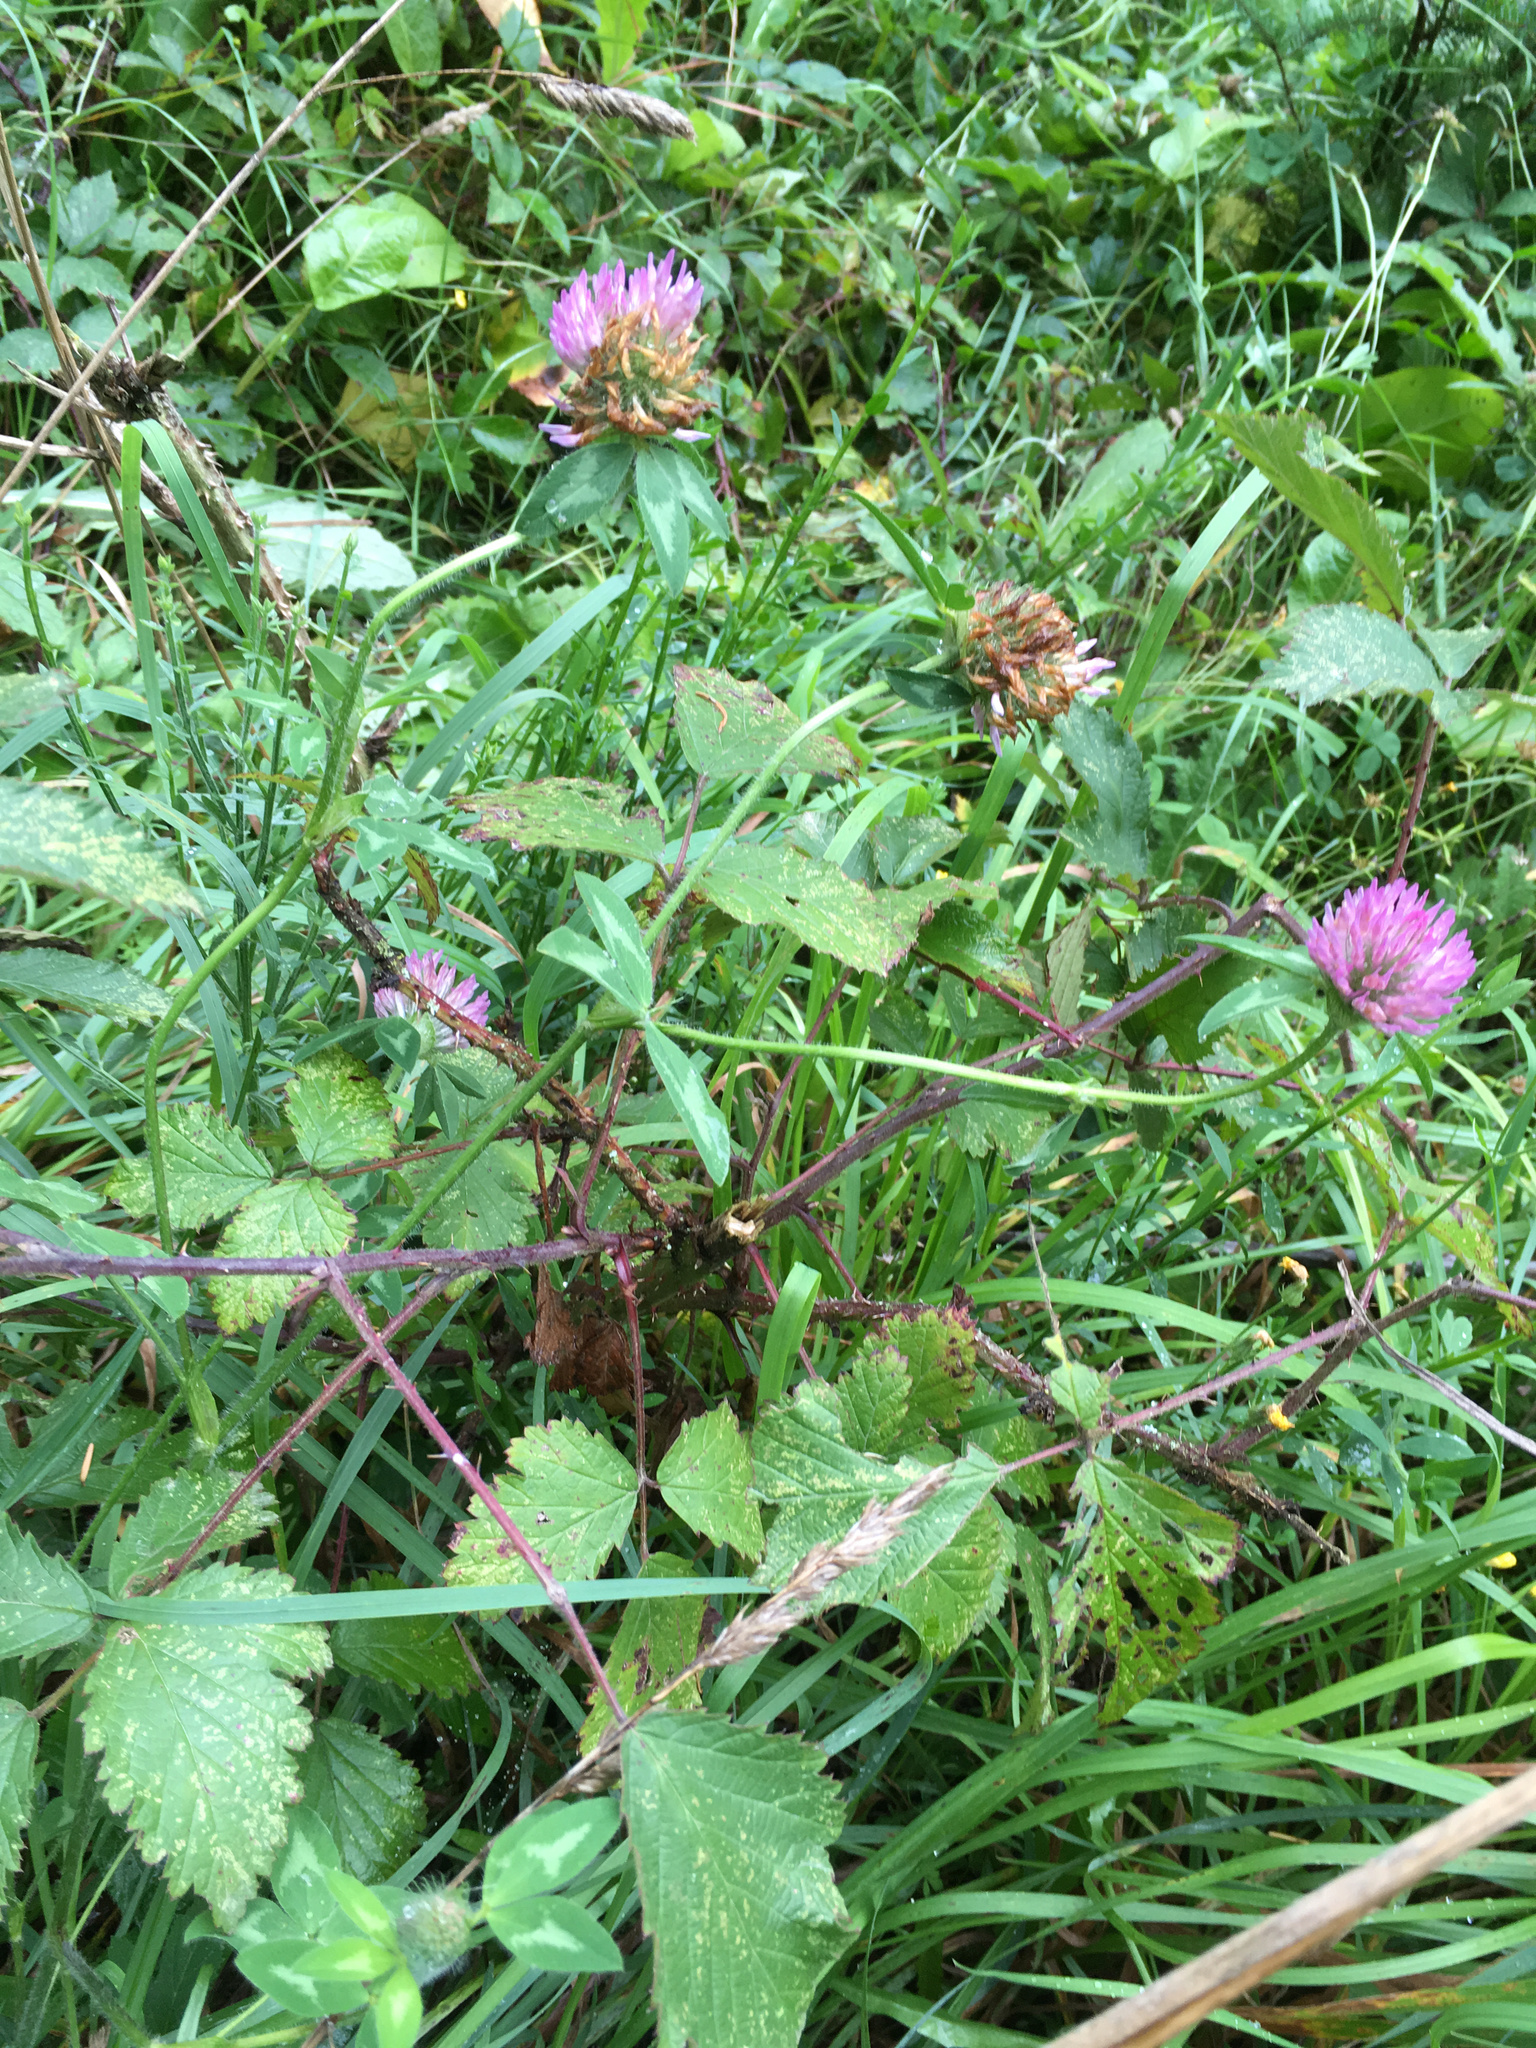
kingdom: Plantae
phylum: Tracheophyta
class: Magnoliopsida
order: Fabales
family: Fabaceae
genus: Trifolium
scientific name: Trifolium pratense
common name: Red clover
